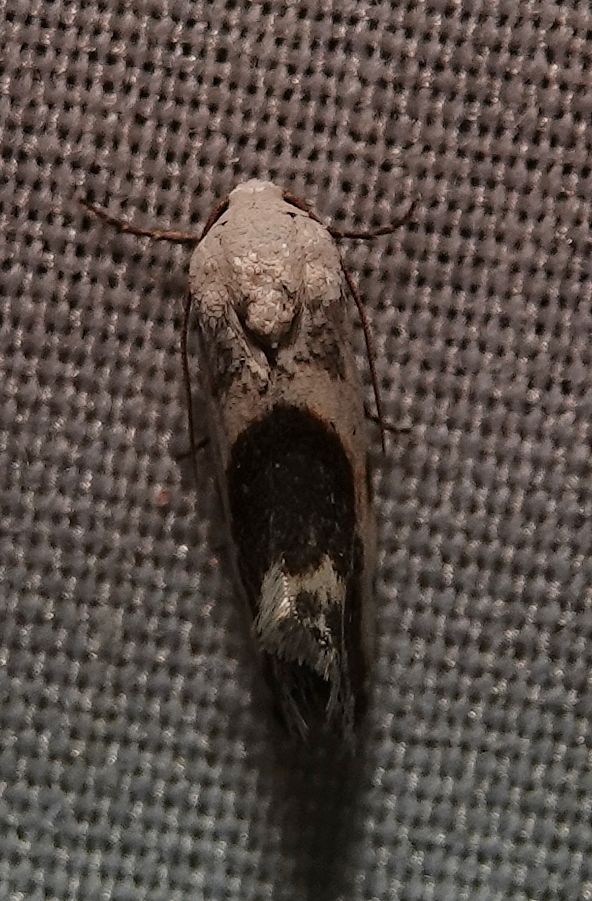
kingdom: Animalia
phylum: Arthropoda
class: Insecta
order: Lepidoptera
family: Noctuidae
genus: Acontia
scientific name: Acontia candefacta
